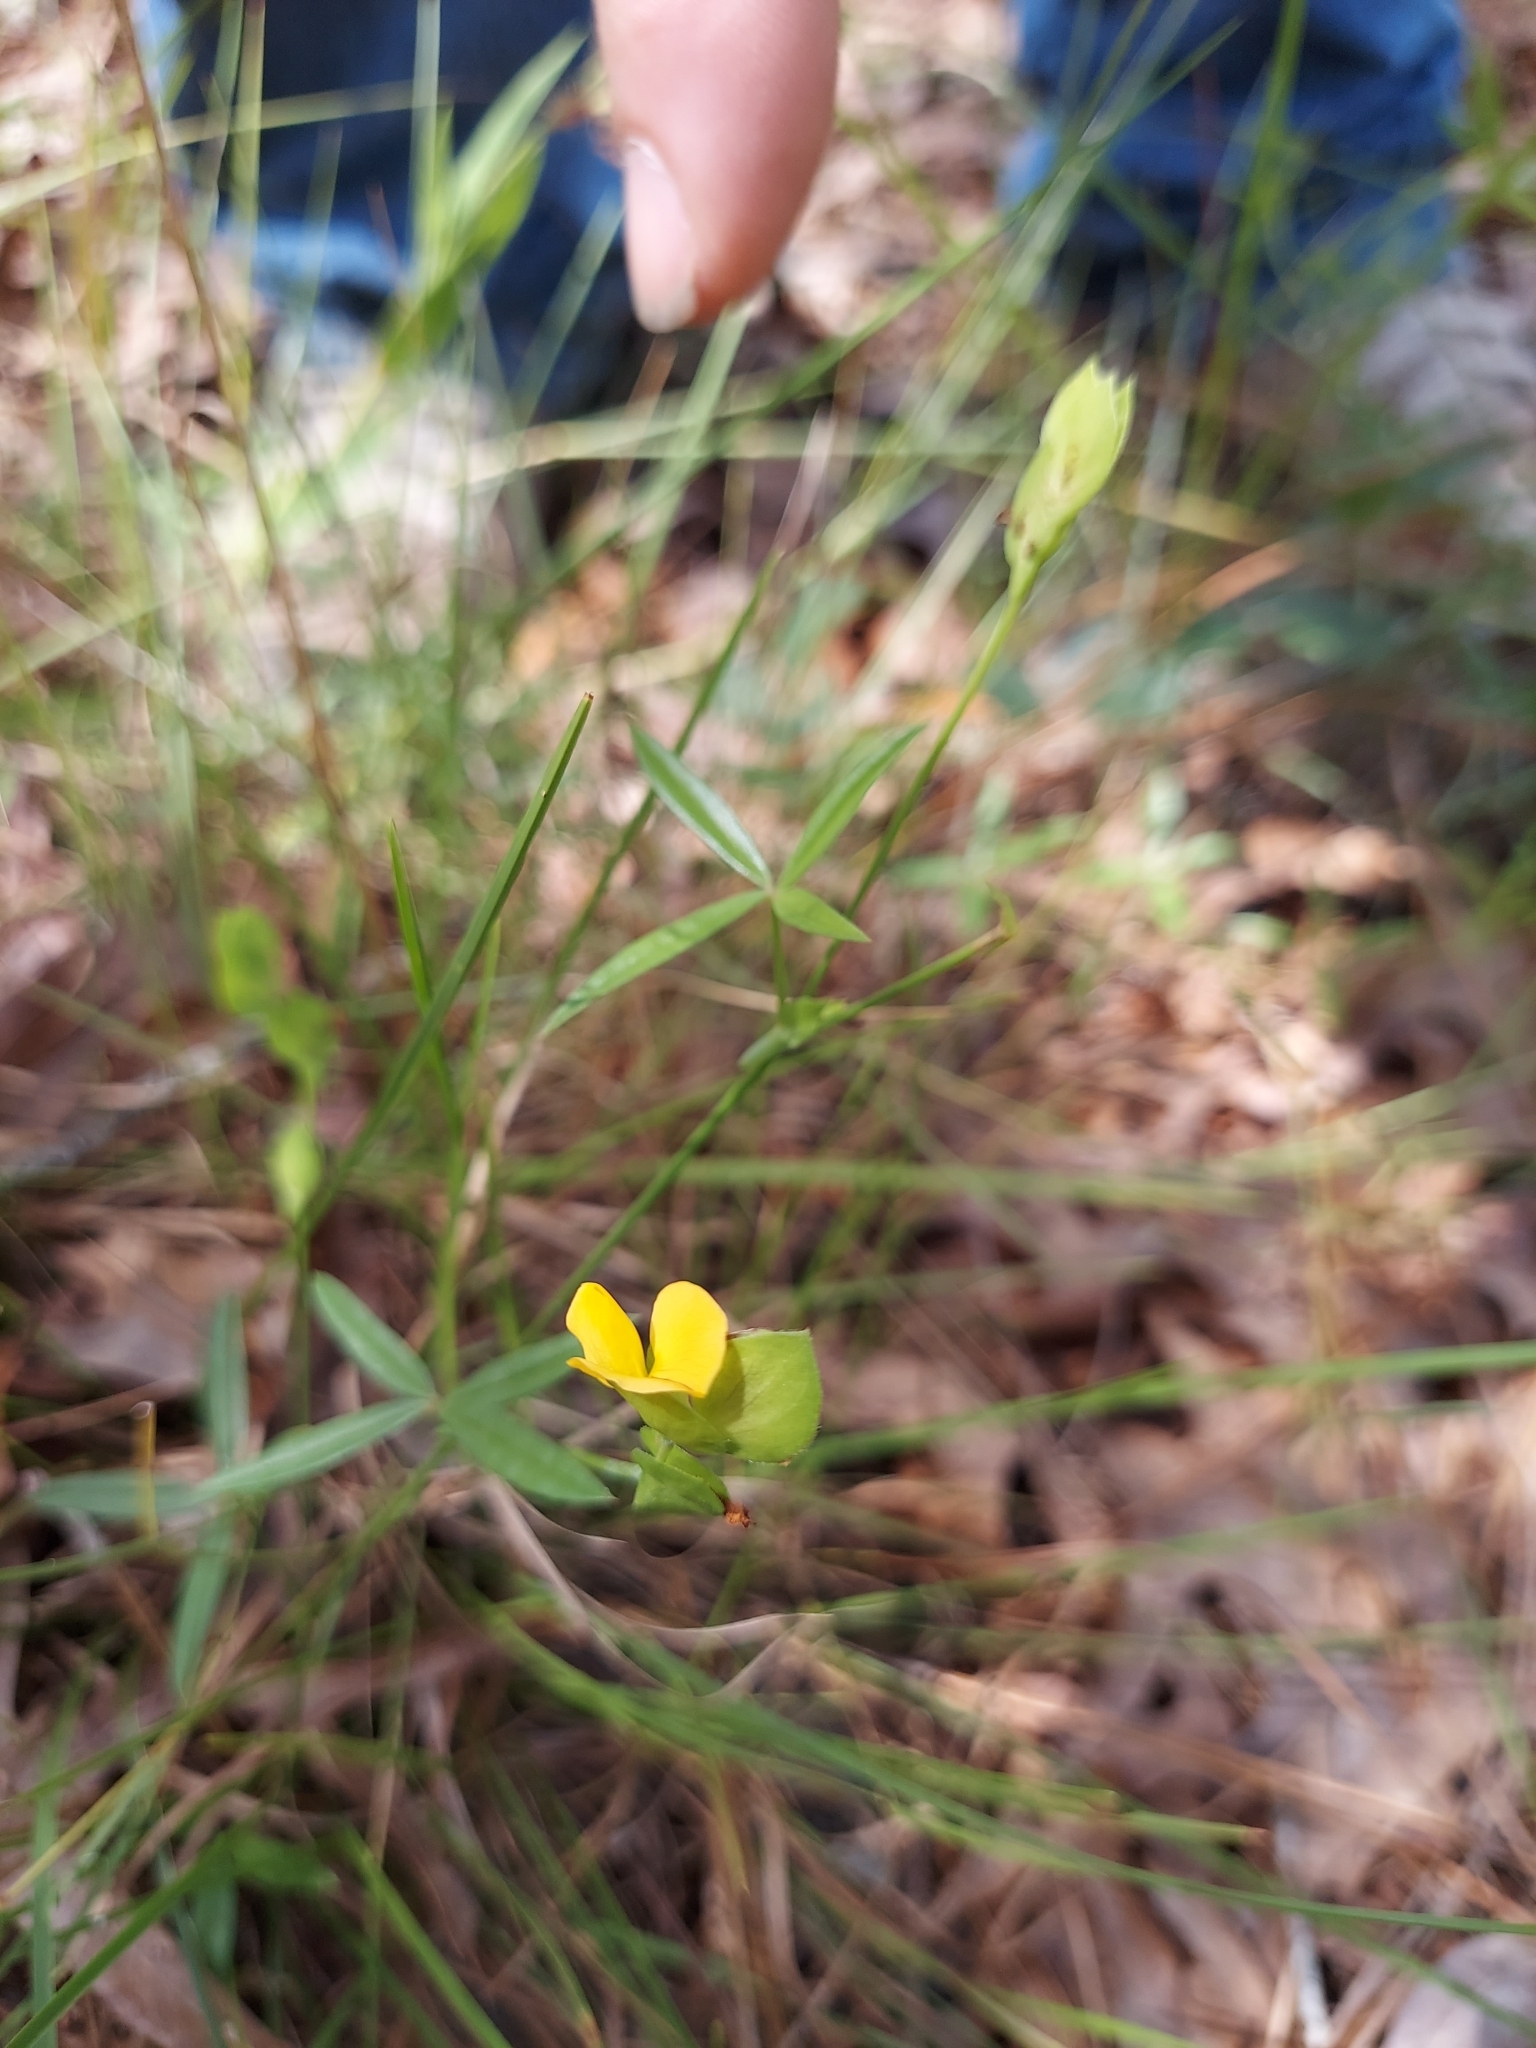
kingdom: Plantae
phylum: Tracheophyta
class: Magnoliopsida
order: Fabales
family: Fabaceae
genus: Zornia
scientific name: Zornia bracteata
